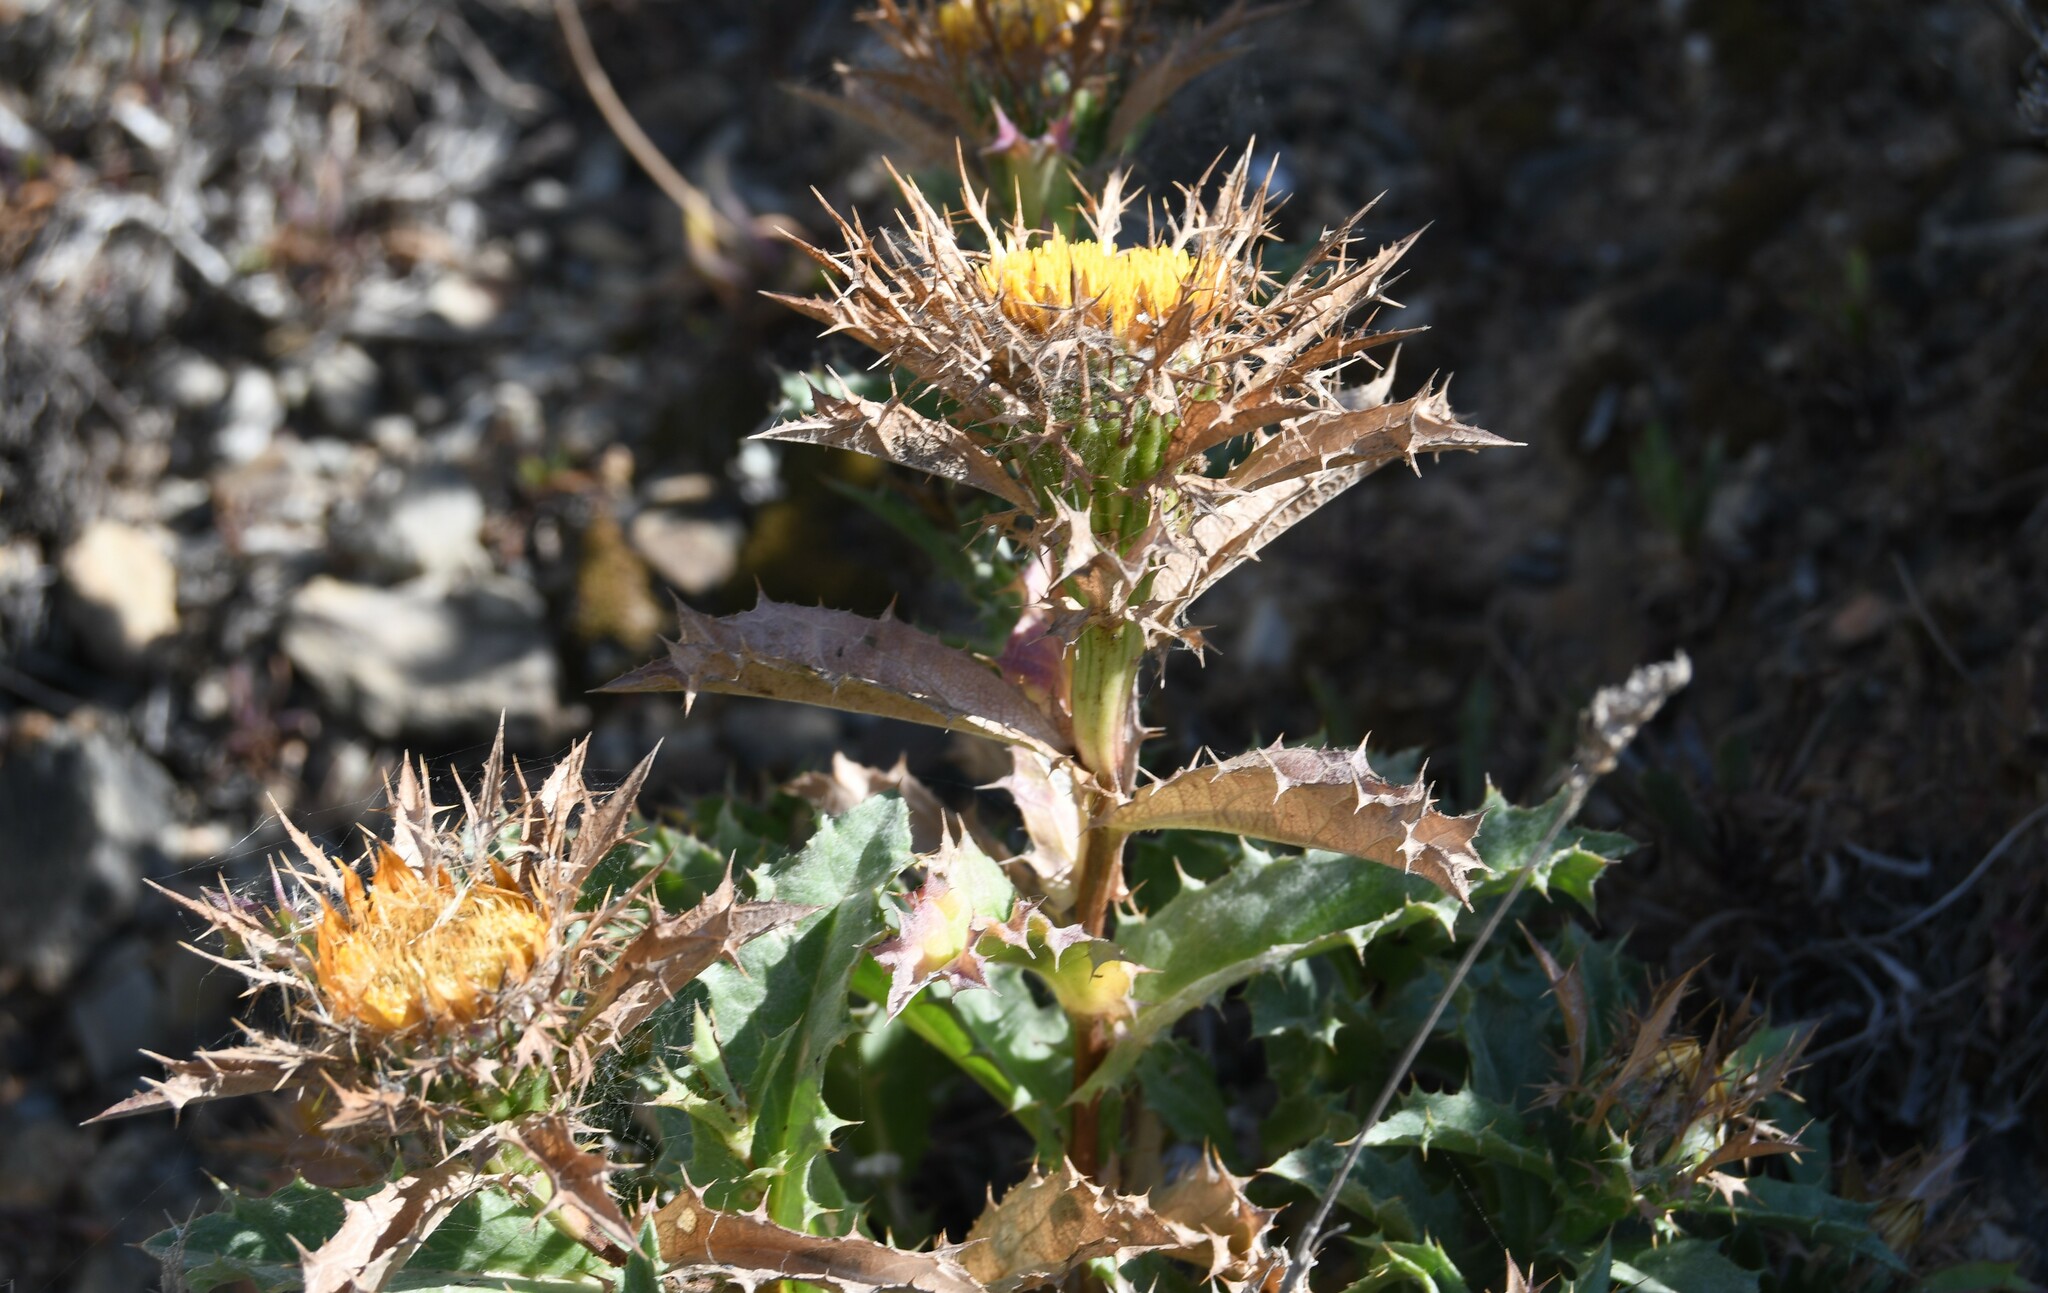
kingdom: Plantae
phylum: Tracheophyta
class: Magnoliopsida
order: Asterales
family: Asteraceae
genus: Carlina
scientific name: Carlina hispanica
